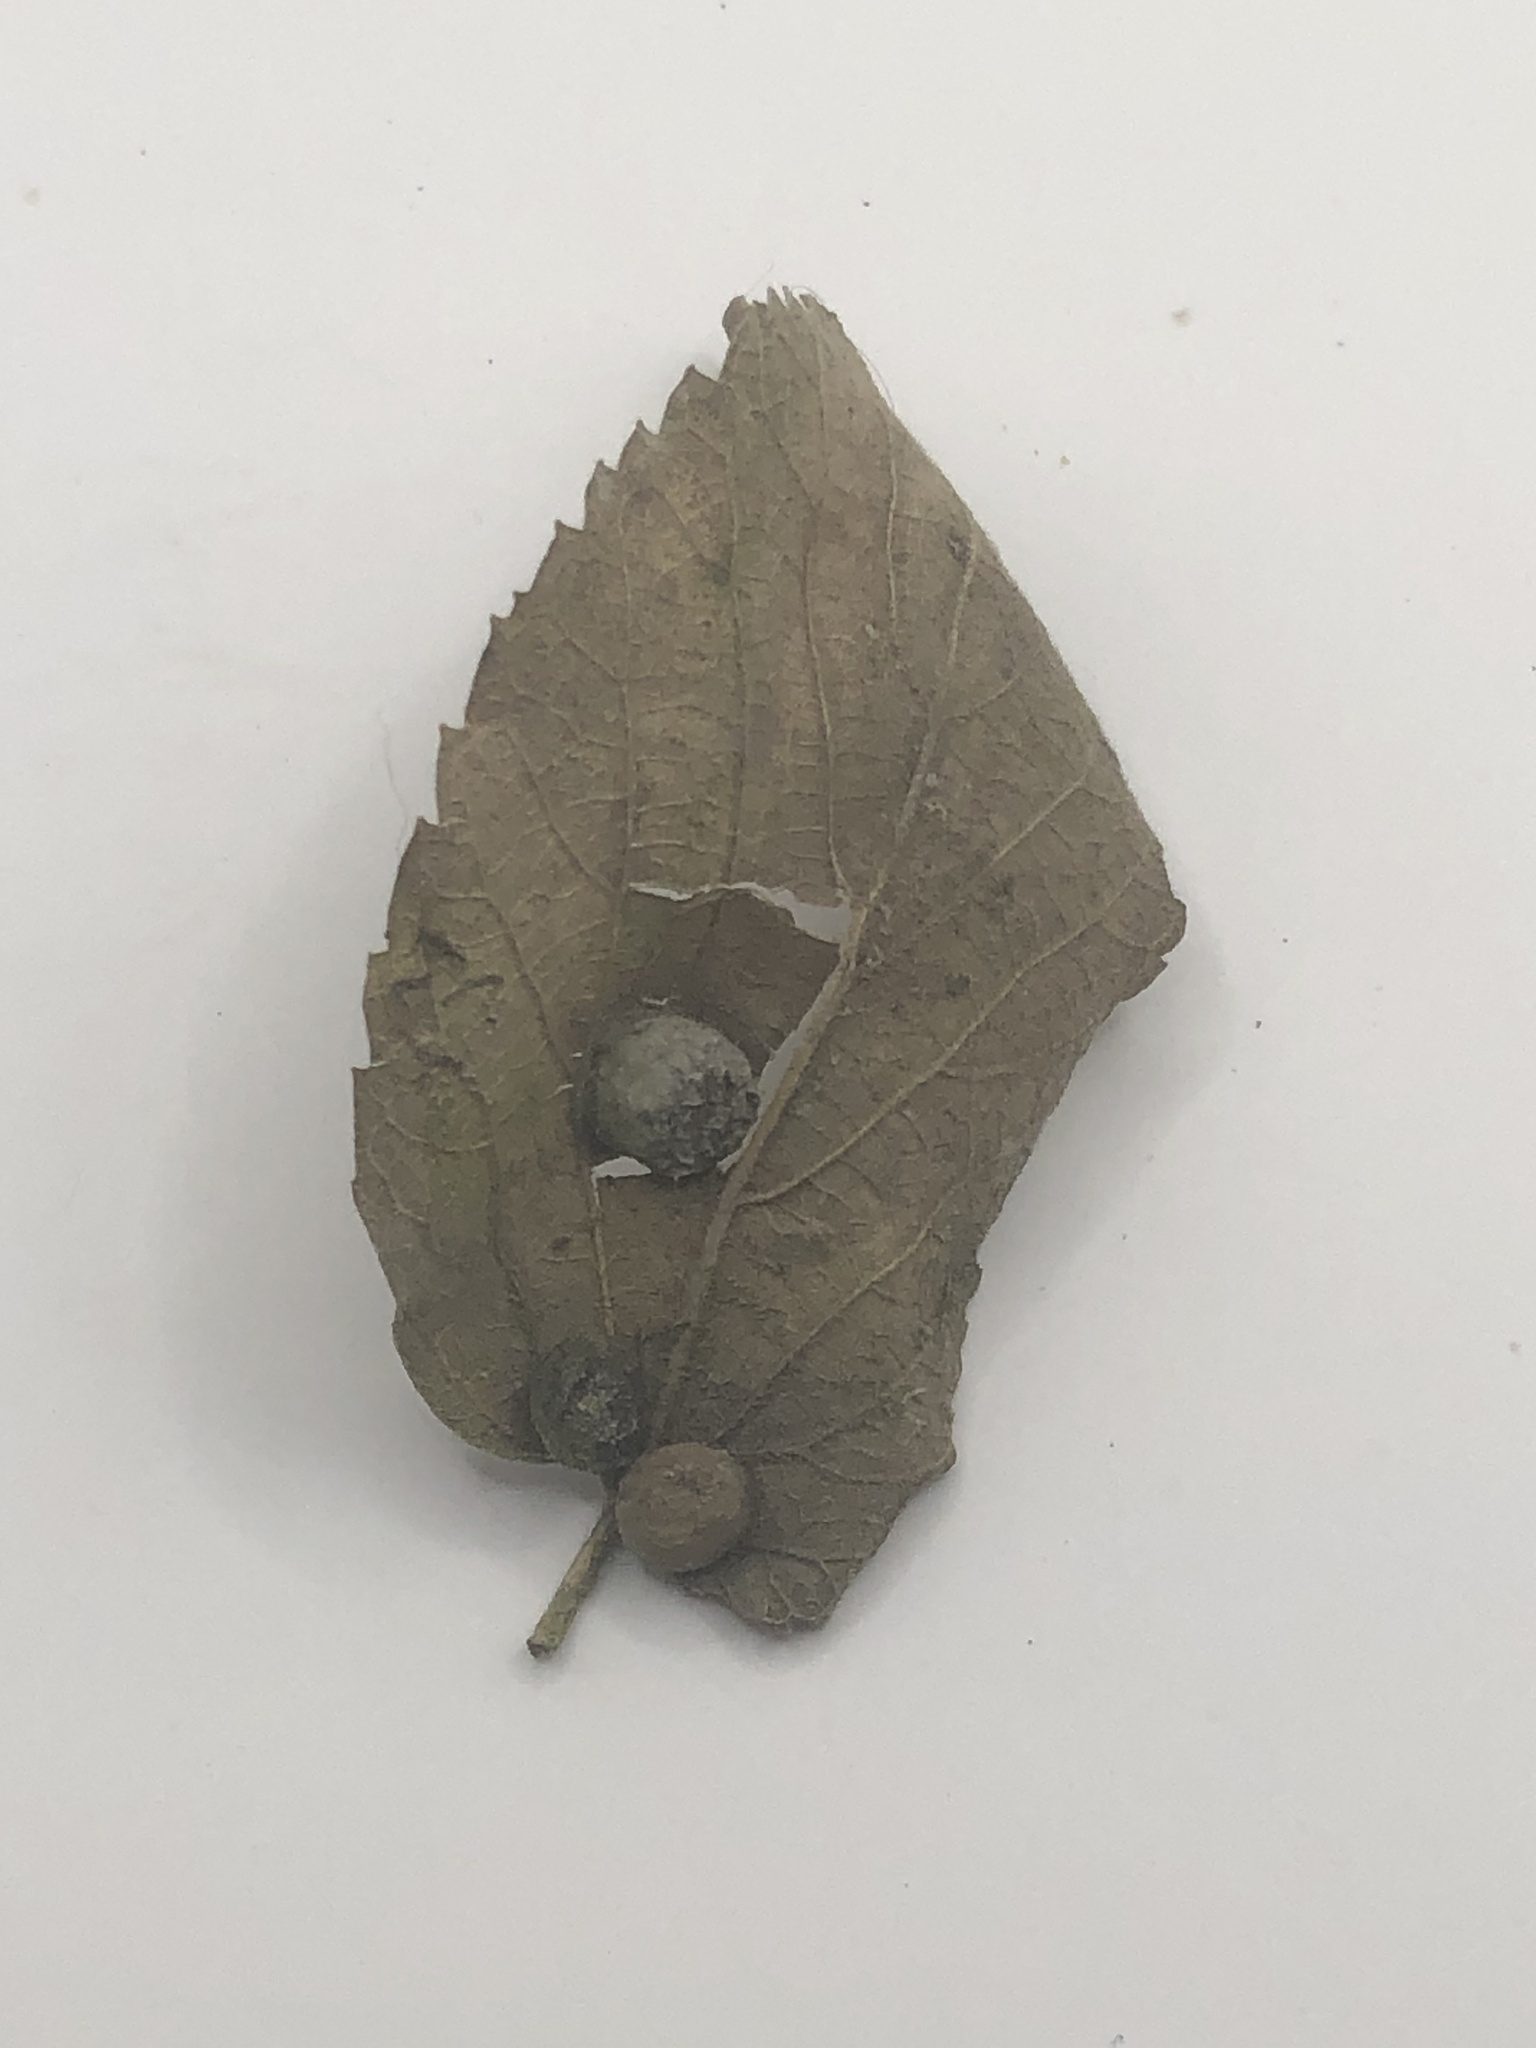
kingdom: Plantae
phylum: Tracheophyta
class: Magnoliopsida
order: Rosales
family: Cannabaceae
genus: Celtis
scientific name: Celtis occidentalis
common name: Common hackberry
